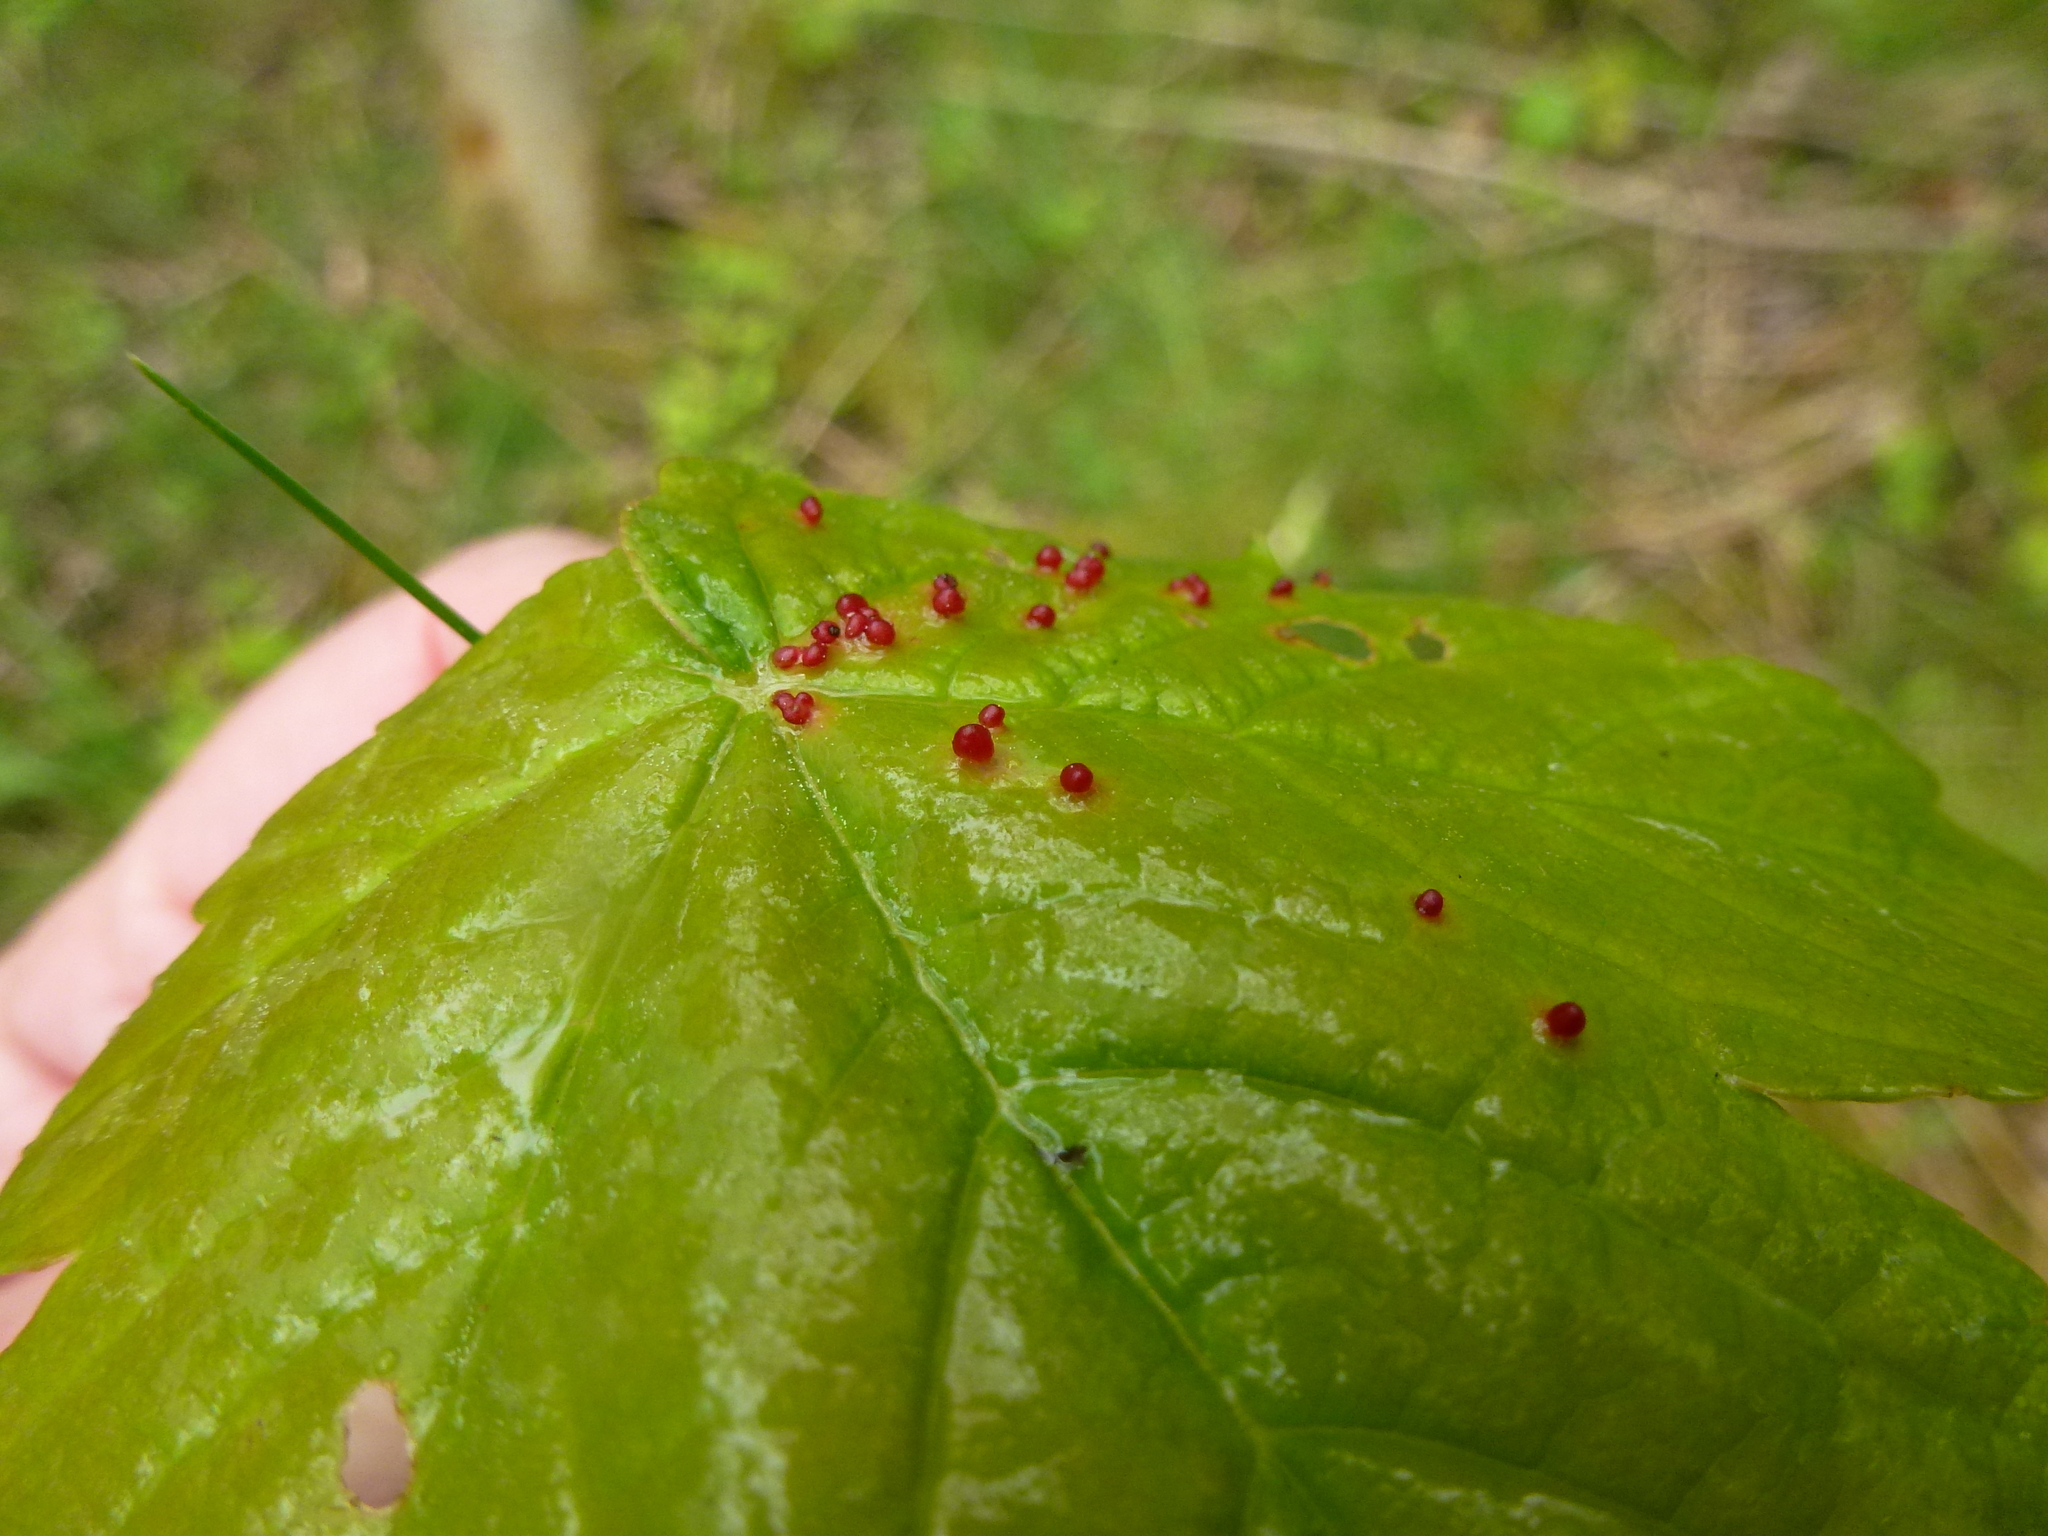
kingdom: Animalia
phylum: Arthropoda
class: Arachnida
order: Trombidiformes
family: Eriophyidae
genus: Aceria
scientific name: Aceria cephaloneus
